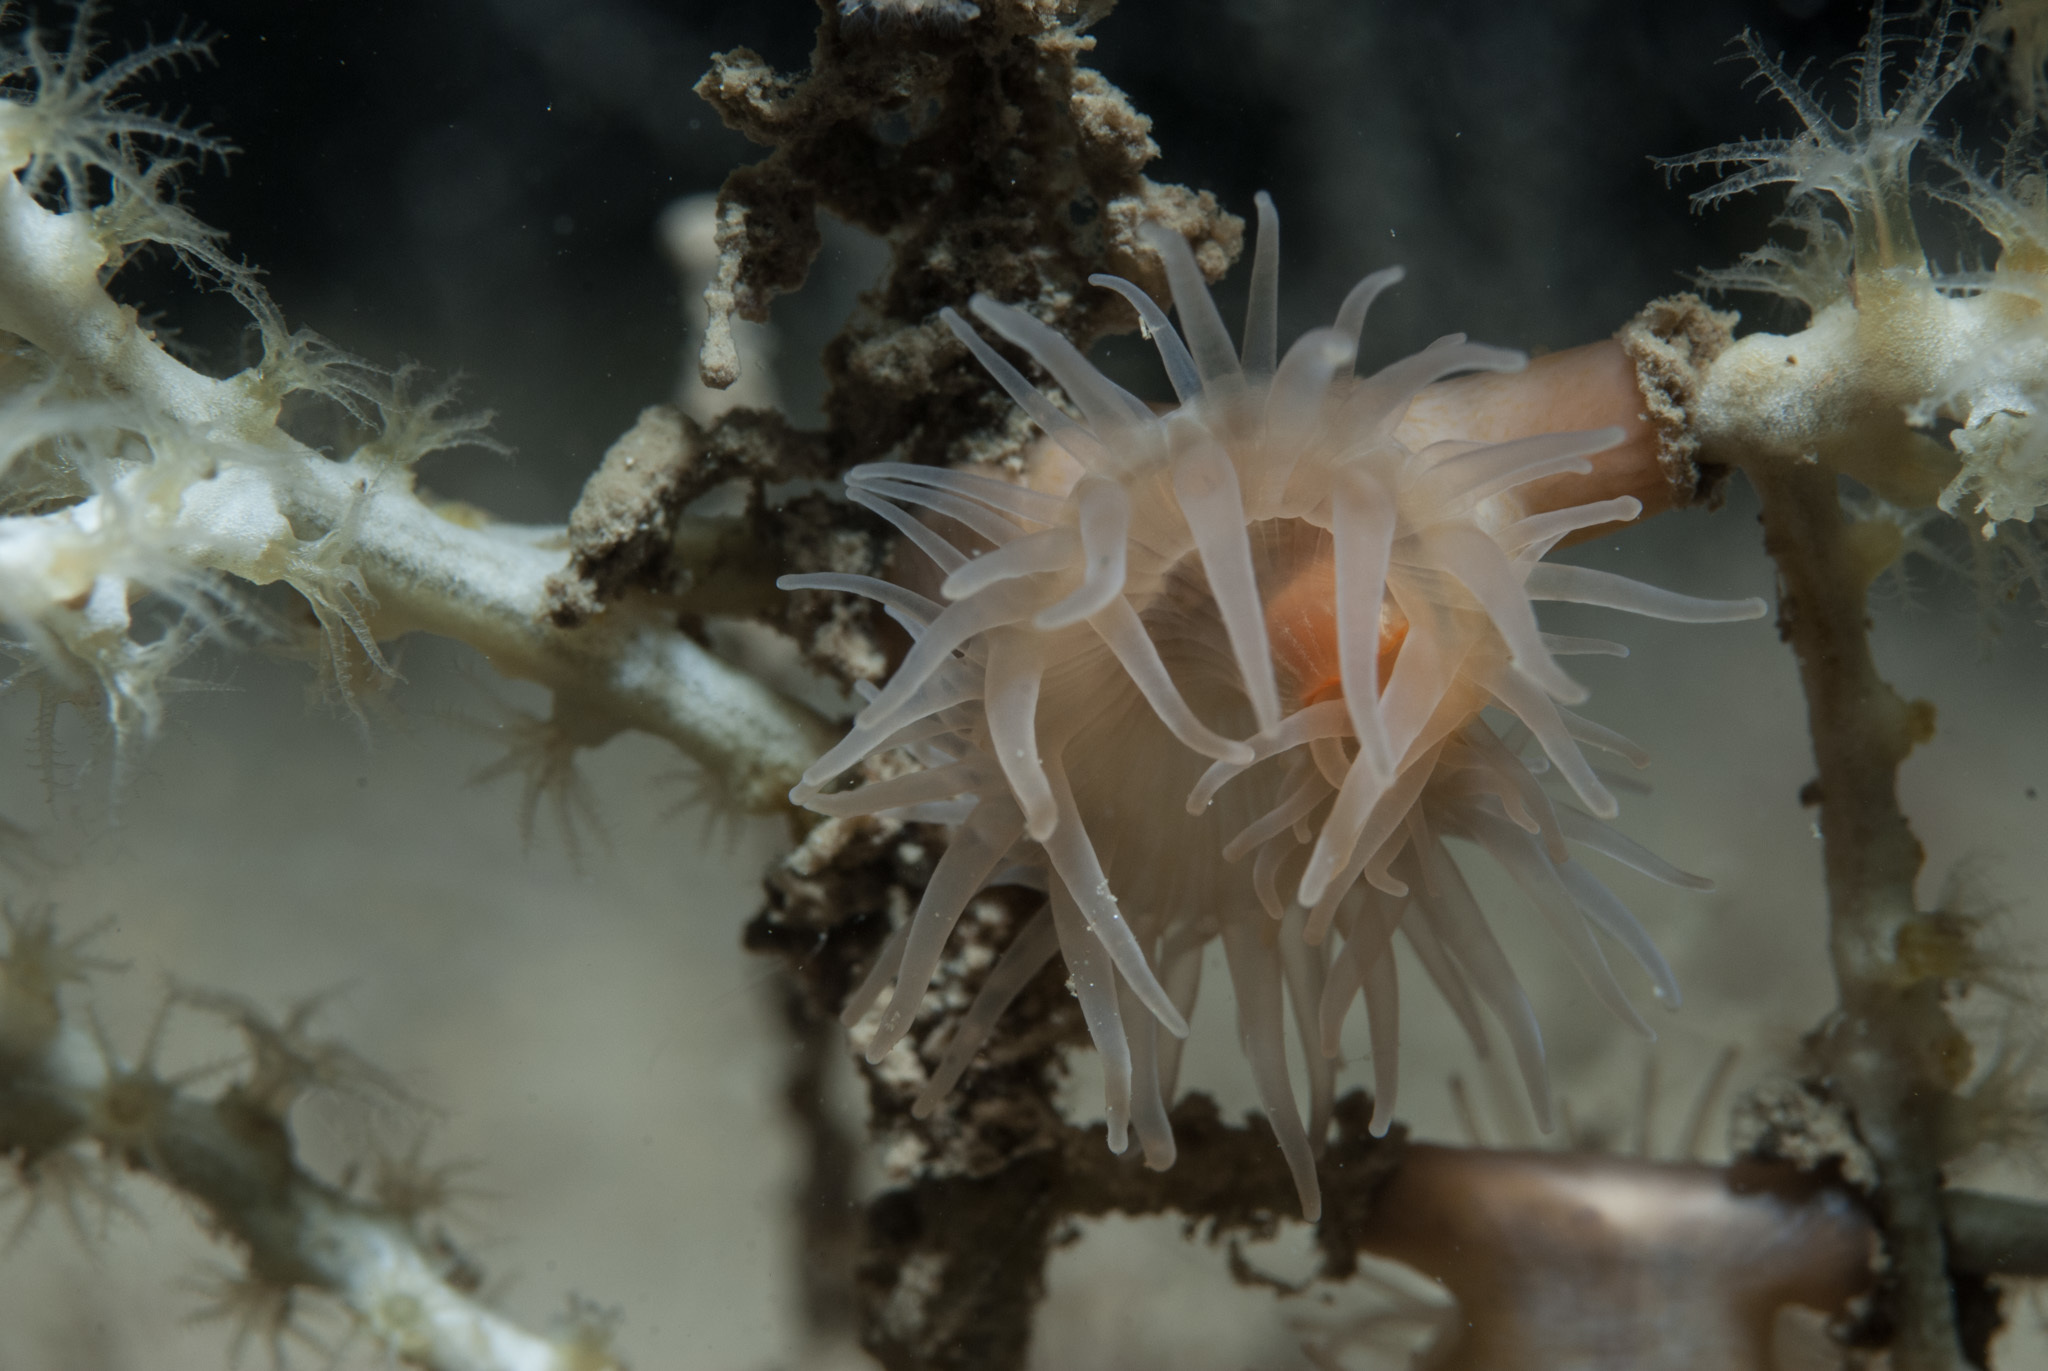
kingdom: Animalia
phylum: Cnidaria
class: Anthozoa
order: Actiniaria
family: Amphianthidae
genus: Amphianthus
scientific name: Amphianthus dohrnii
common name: Sea-fan anemone
